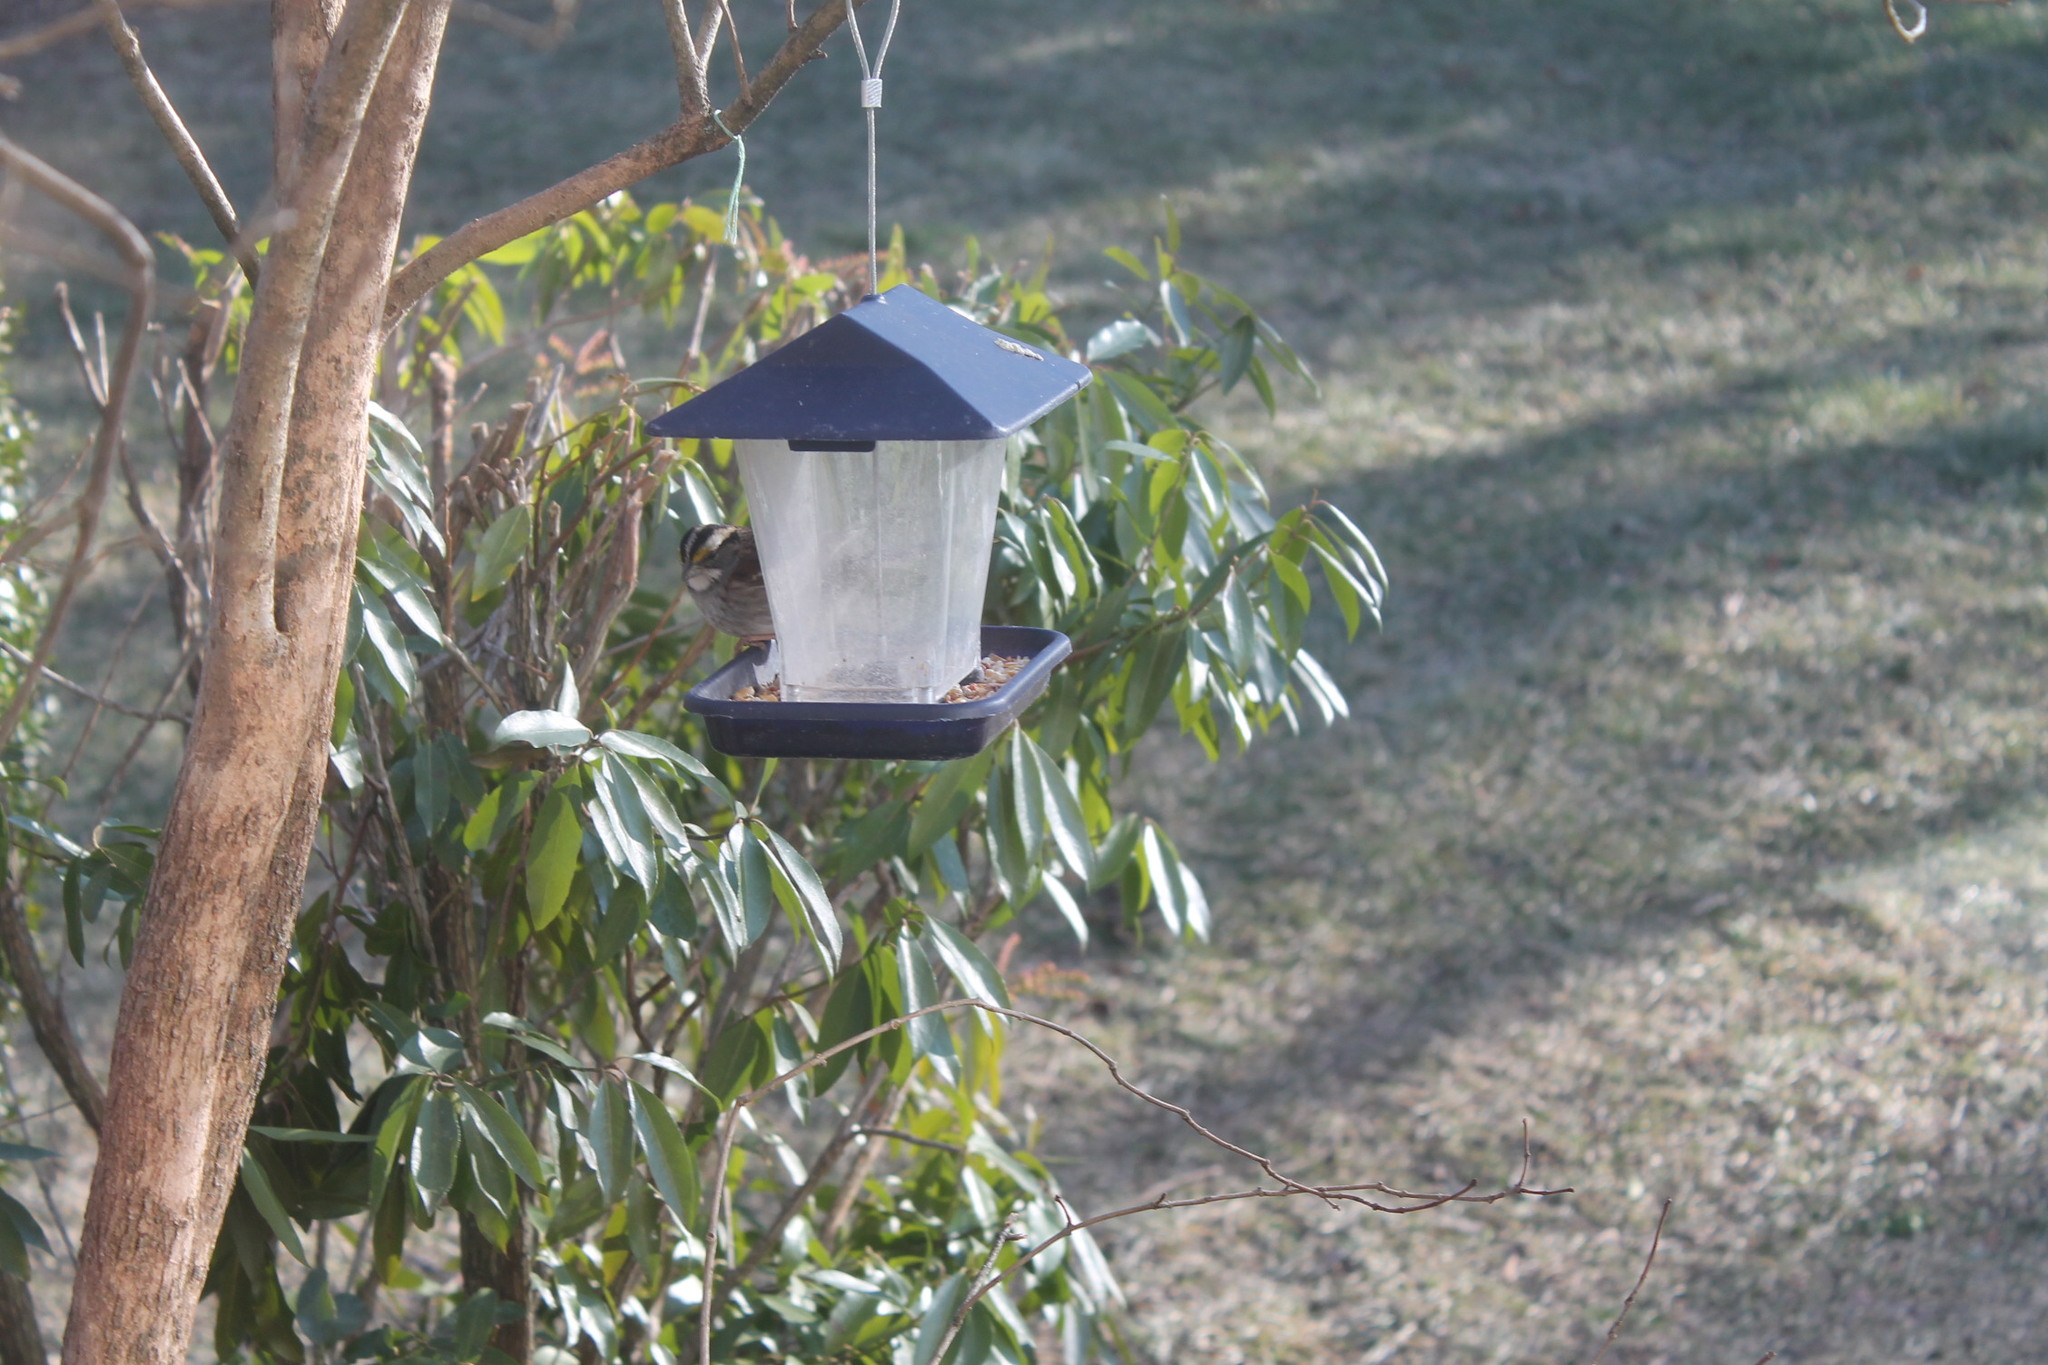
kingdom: Animalia
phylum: Chordata
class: Aves
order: Passeriformes
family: Passerellidae
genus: Zonotrichia
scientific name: Zonotrichia albicollis
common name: White-throated sparrow
